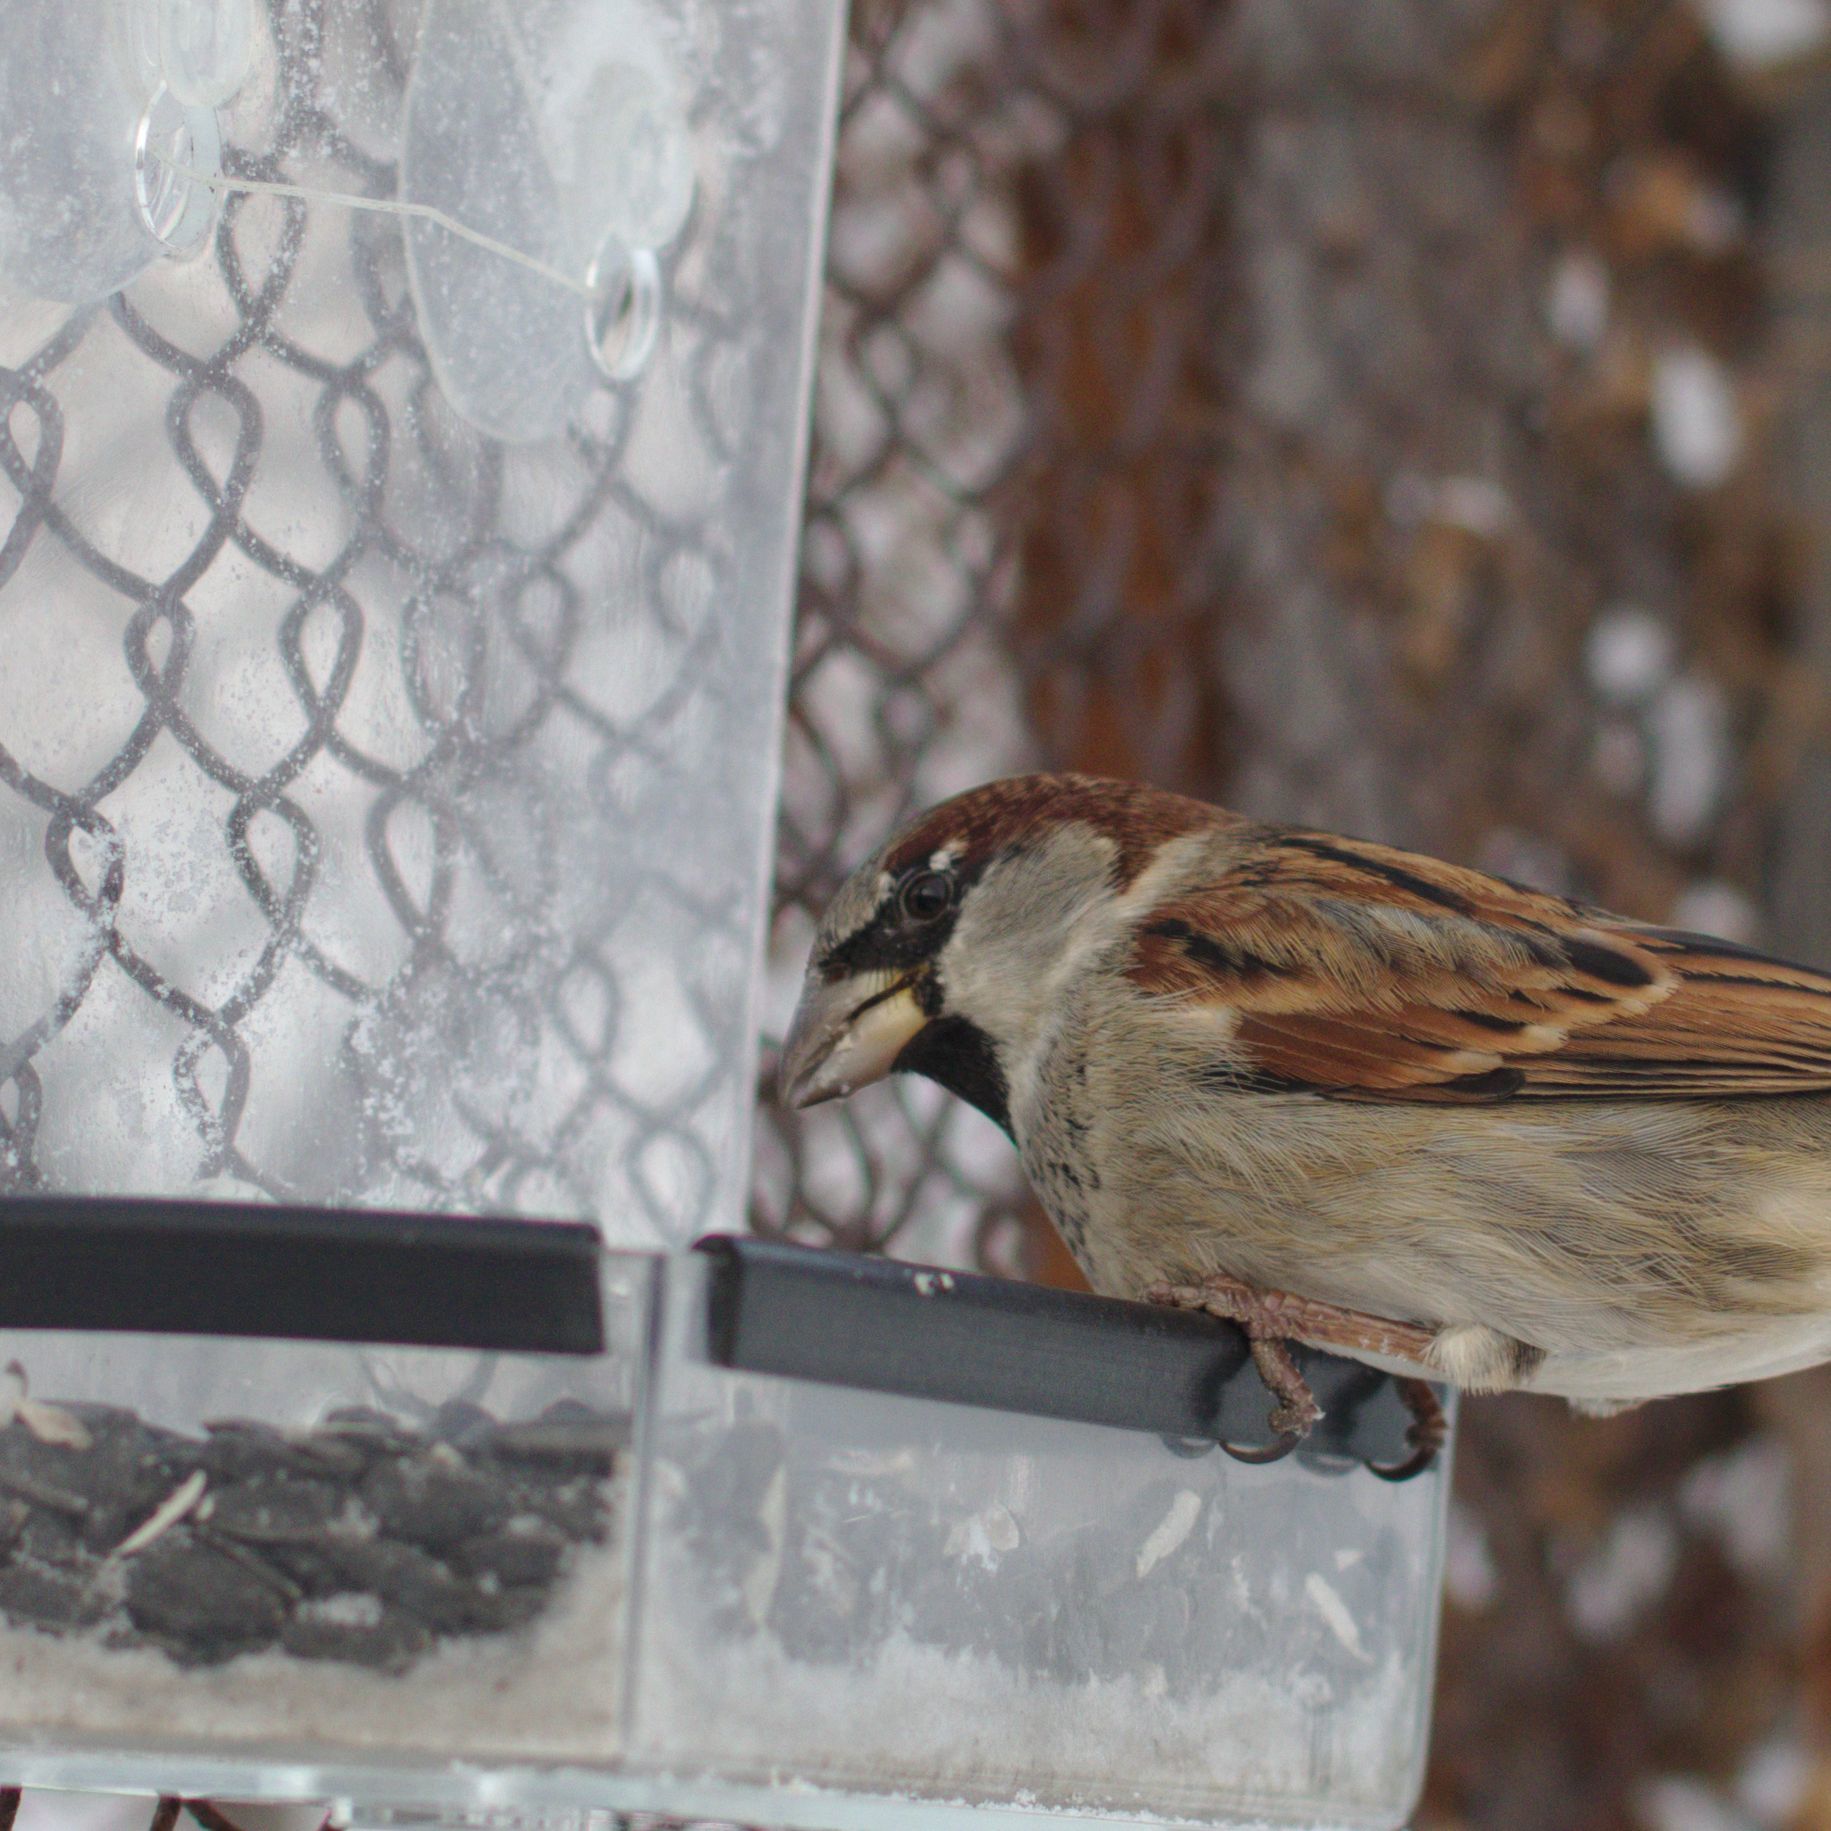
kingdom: Animalia
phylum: Chordata
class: Aves
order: Passeriformes
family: Passeridae
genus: Passer
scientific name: Passer domesticus
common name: House sparrow
